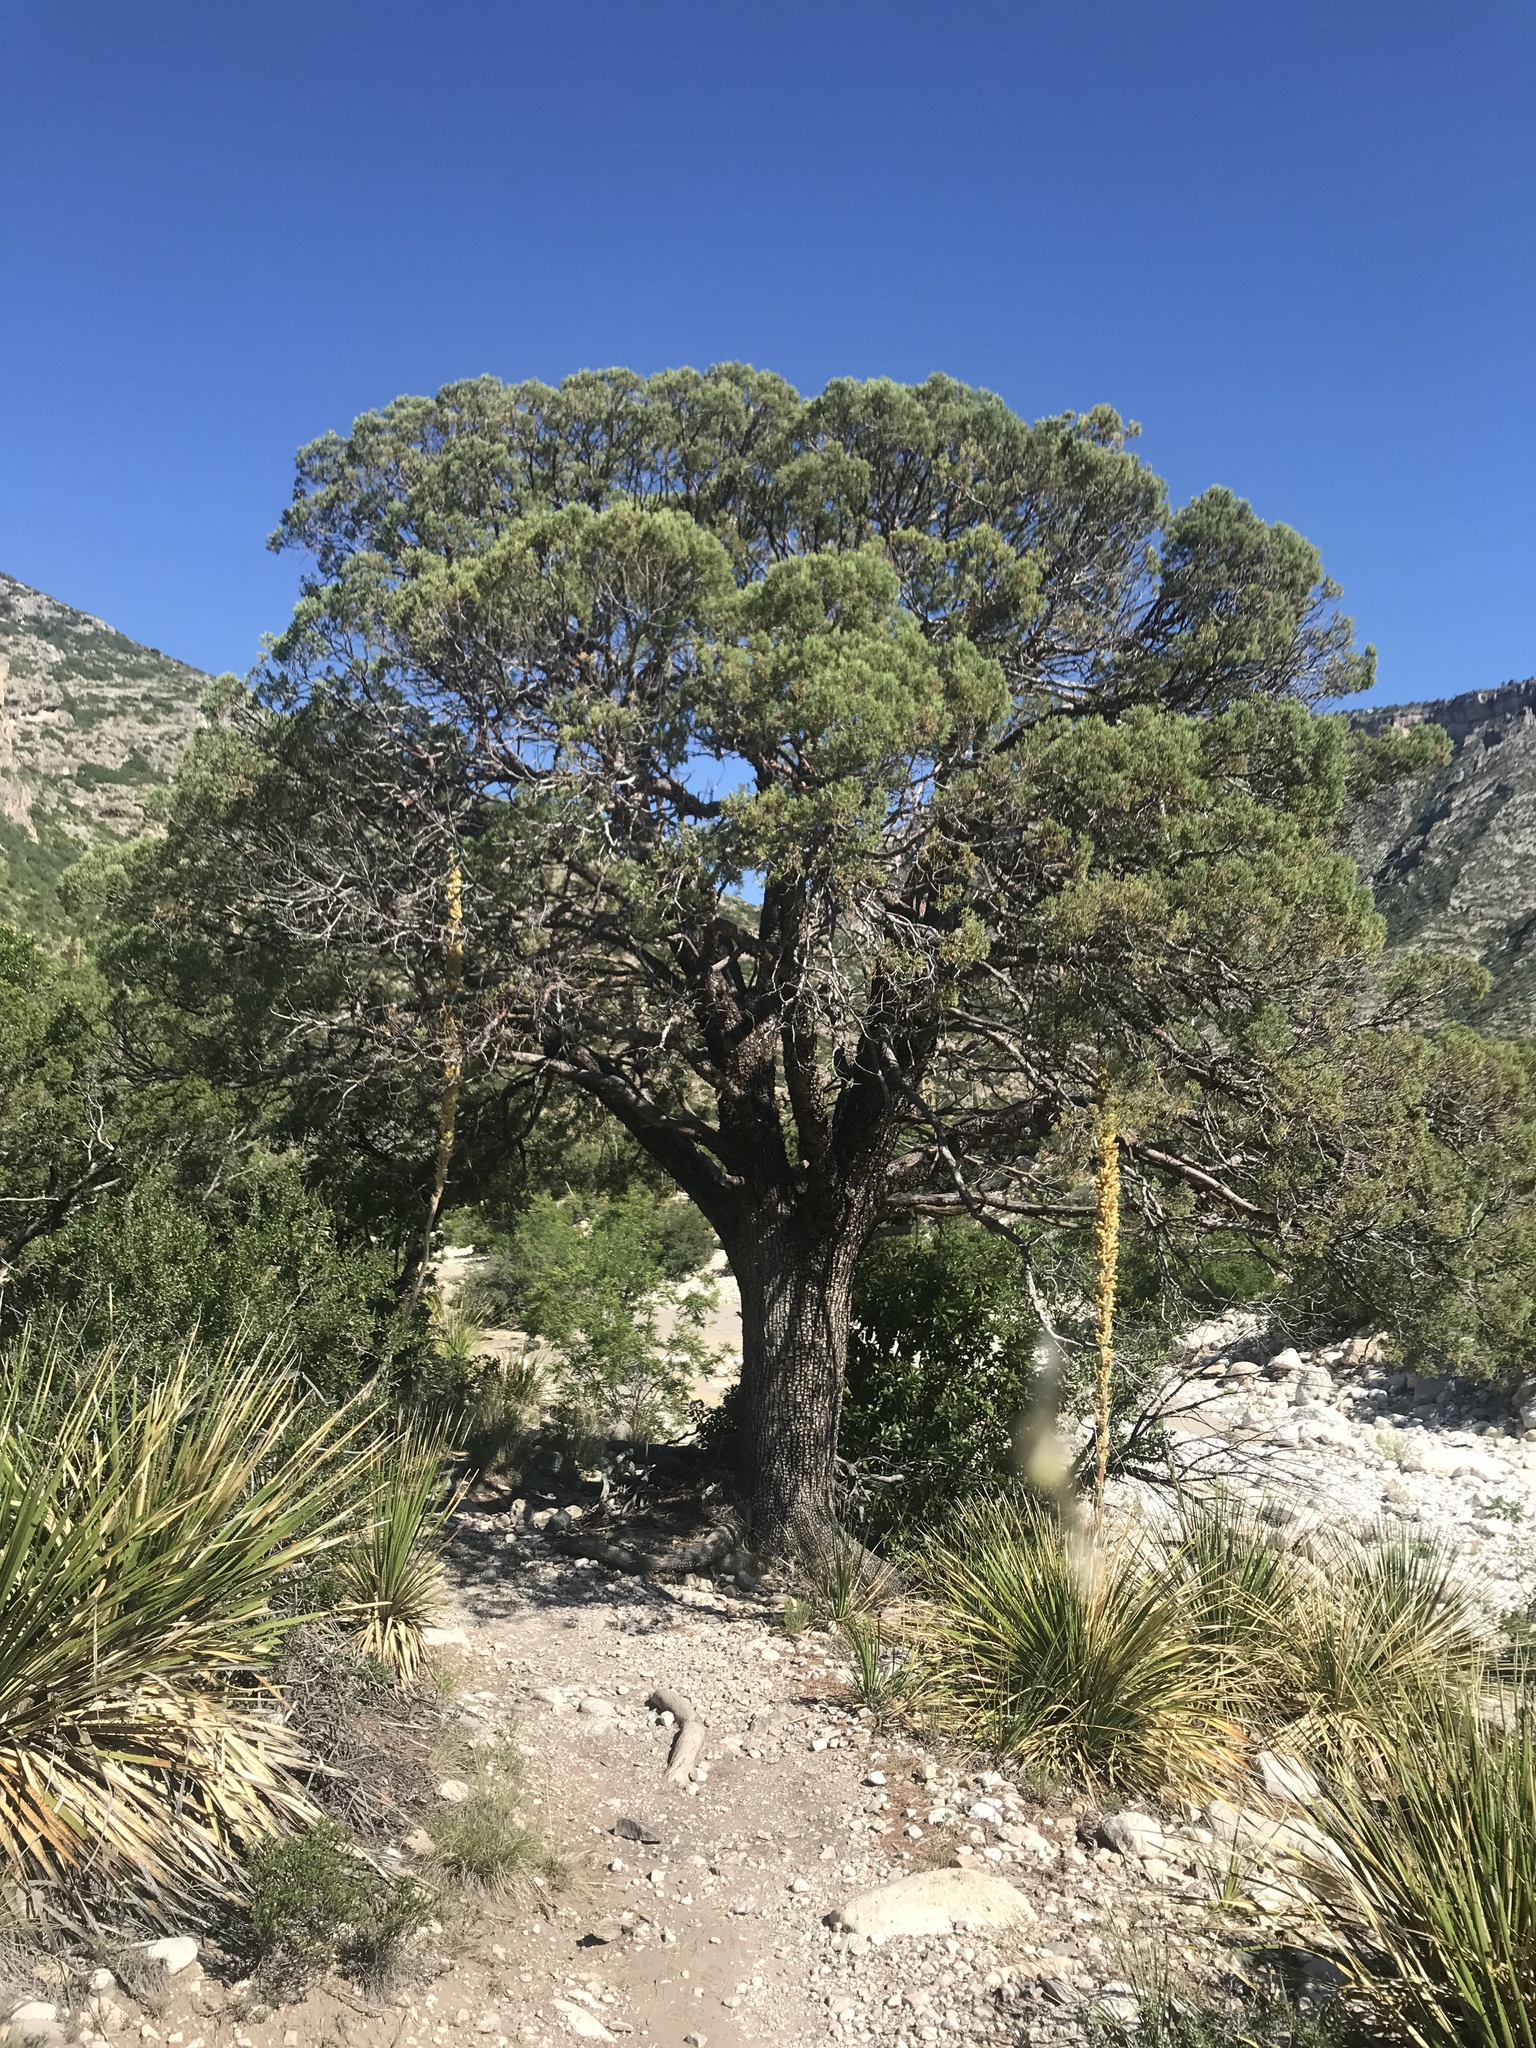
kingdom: Plantae
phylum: Tracheophyta
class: Pinopsida
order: Pinales
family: Cupressaceae
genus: Juniperus
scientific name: Juniperus deppeana
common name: Alligator juniper
